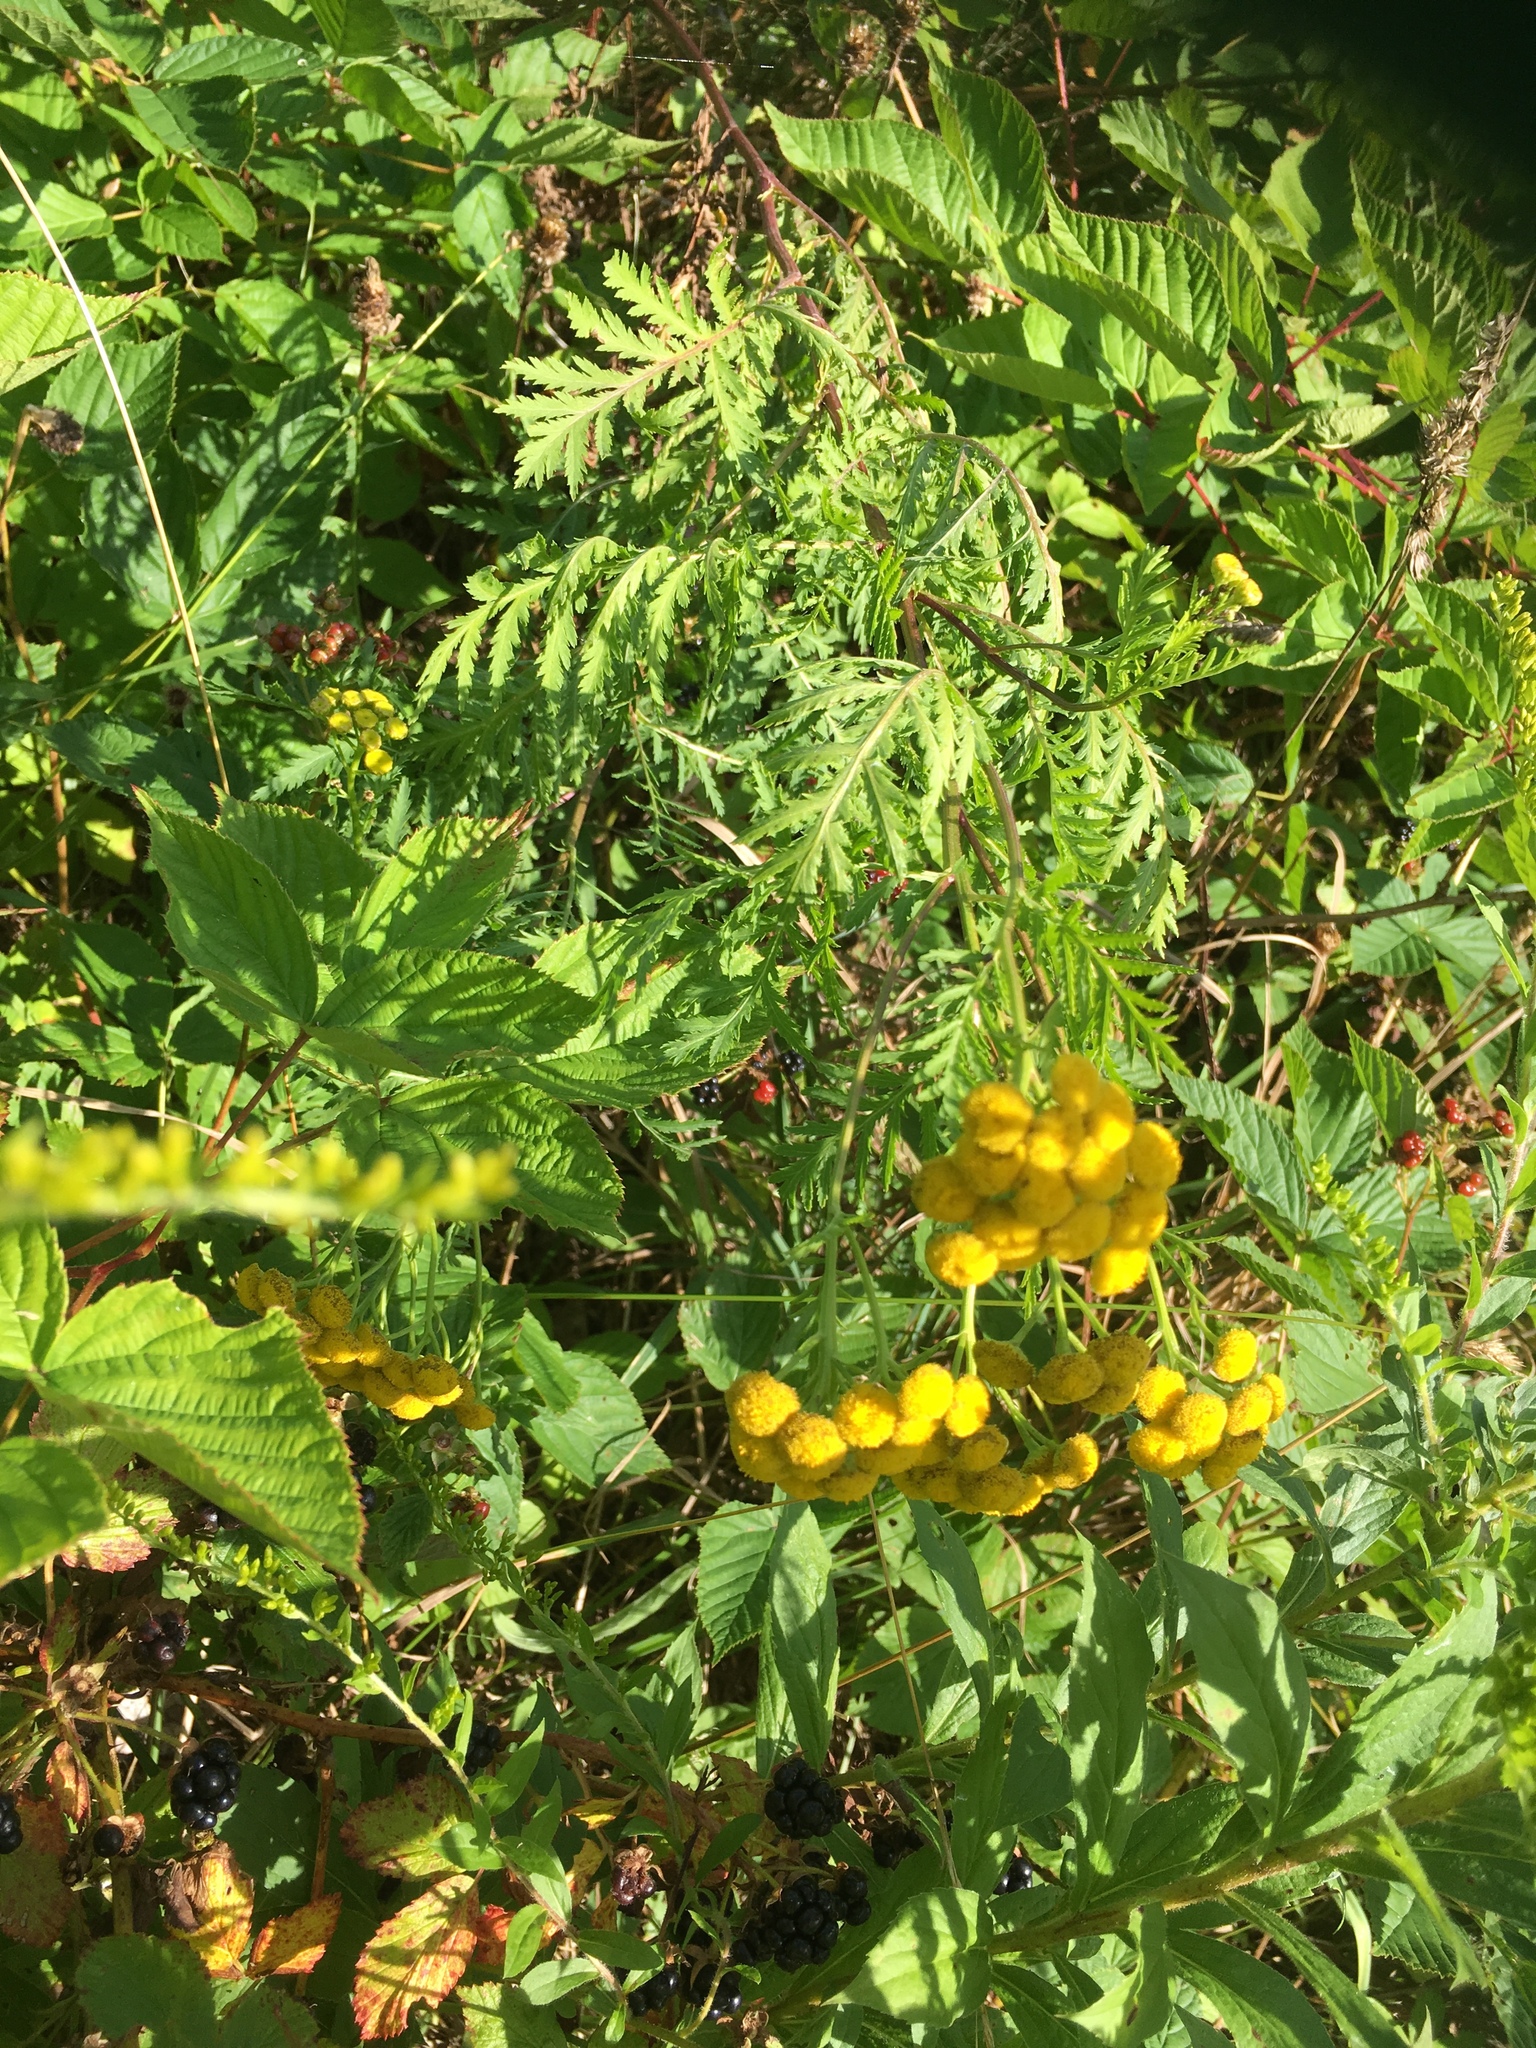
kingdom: Plantae
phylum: Tracheophyta
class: Magnoliopsida
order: Asterales
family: Asteraceae
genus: Tanacetum
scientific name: Tanacetum vulgare
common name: Common tansy
